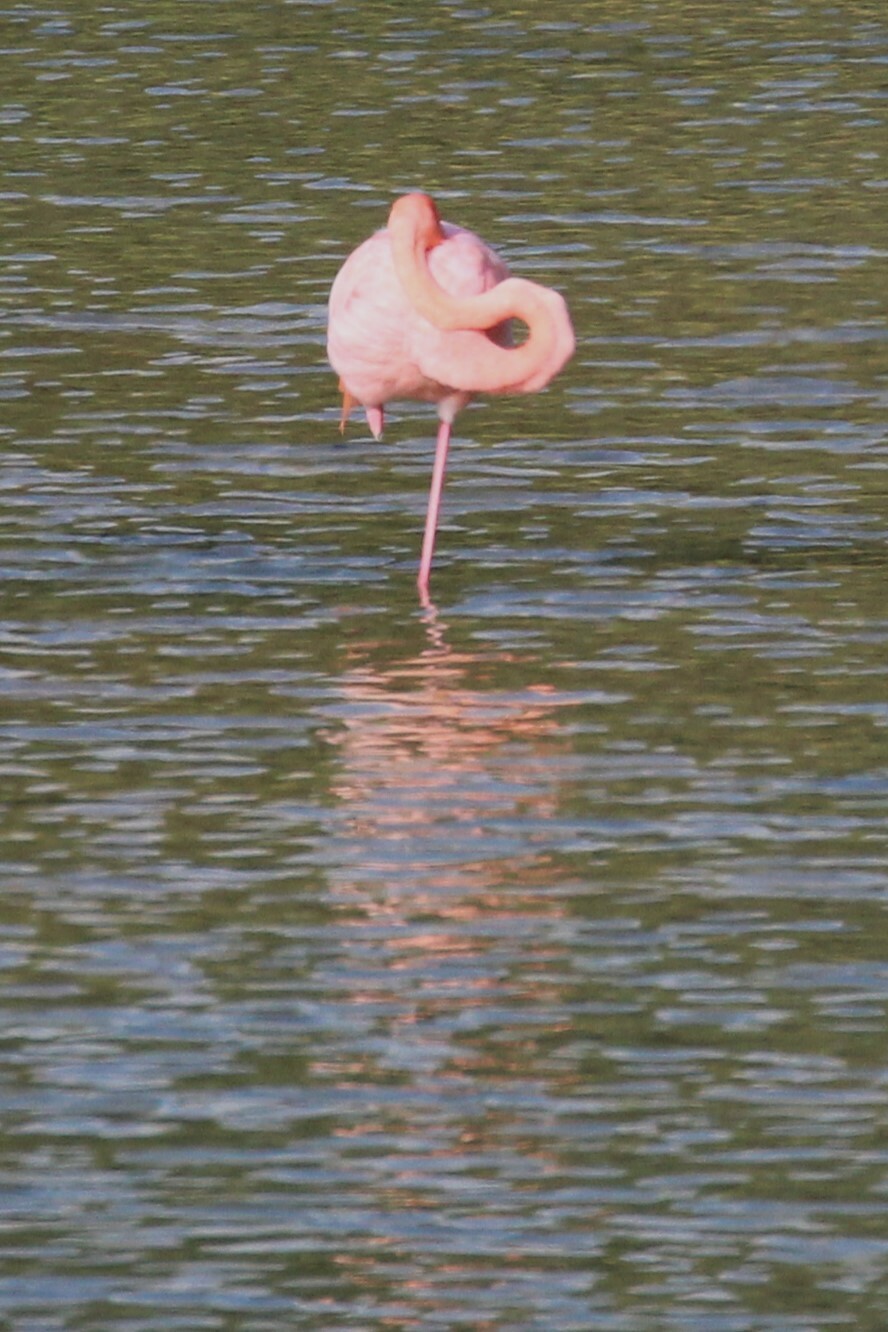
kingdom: Animalia
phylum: Chordata
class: Aves
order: Phoenicopteriformes
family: Phoenicopteridae
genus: Phoenicopterus
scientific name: Phoenicopterus ruber
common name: American flamingo
